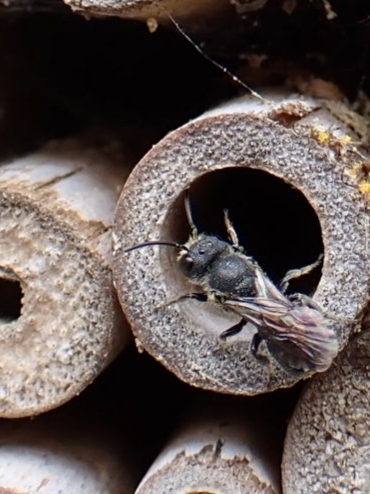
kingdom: Animalia
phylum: Arthropoda
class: Insecta
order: Hymenoptera
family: Megachilidae
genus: Heriades
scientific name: Heriades truncorum
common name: Ridge-saddled carpenter bee
